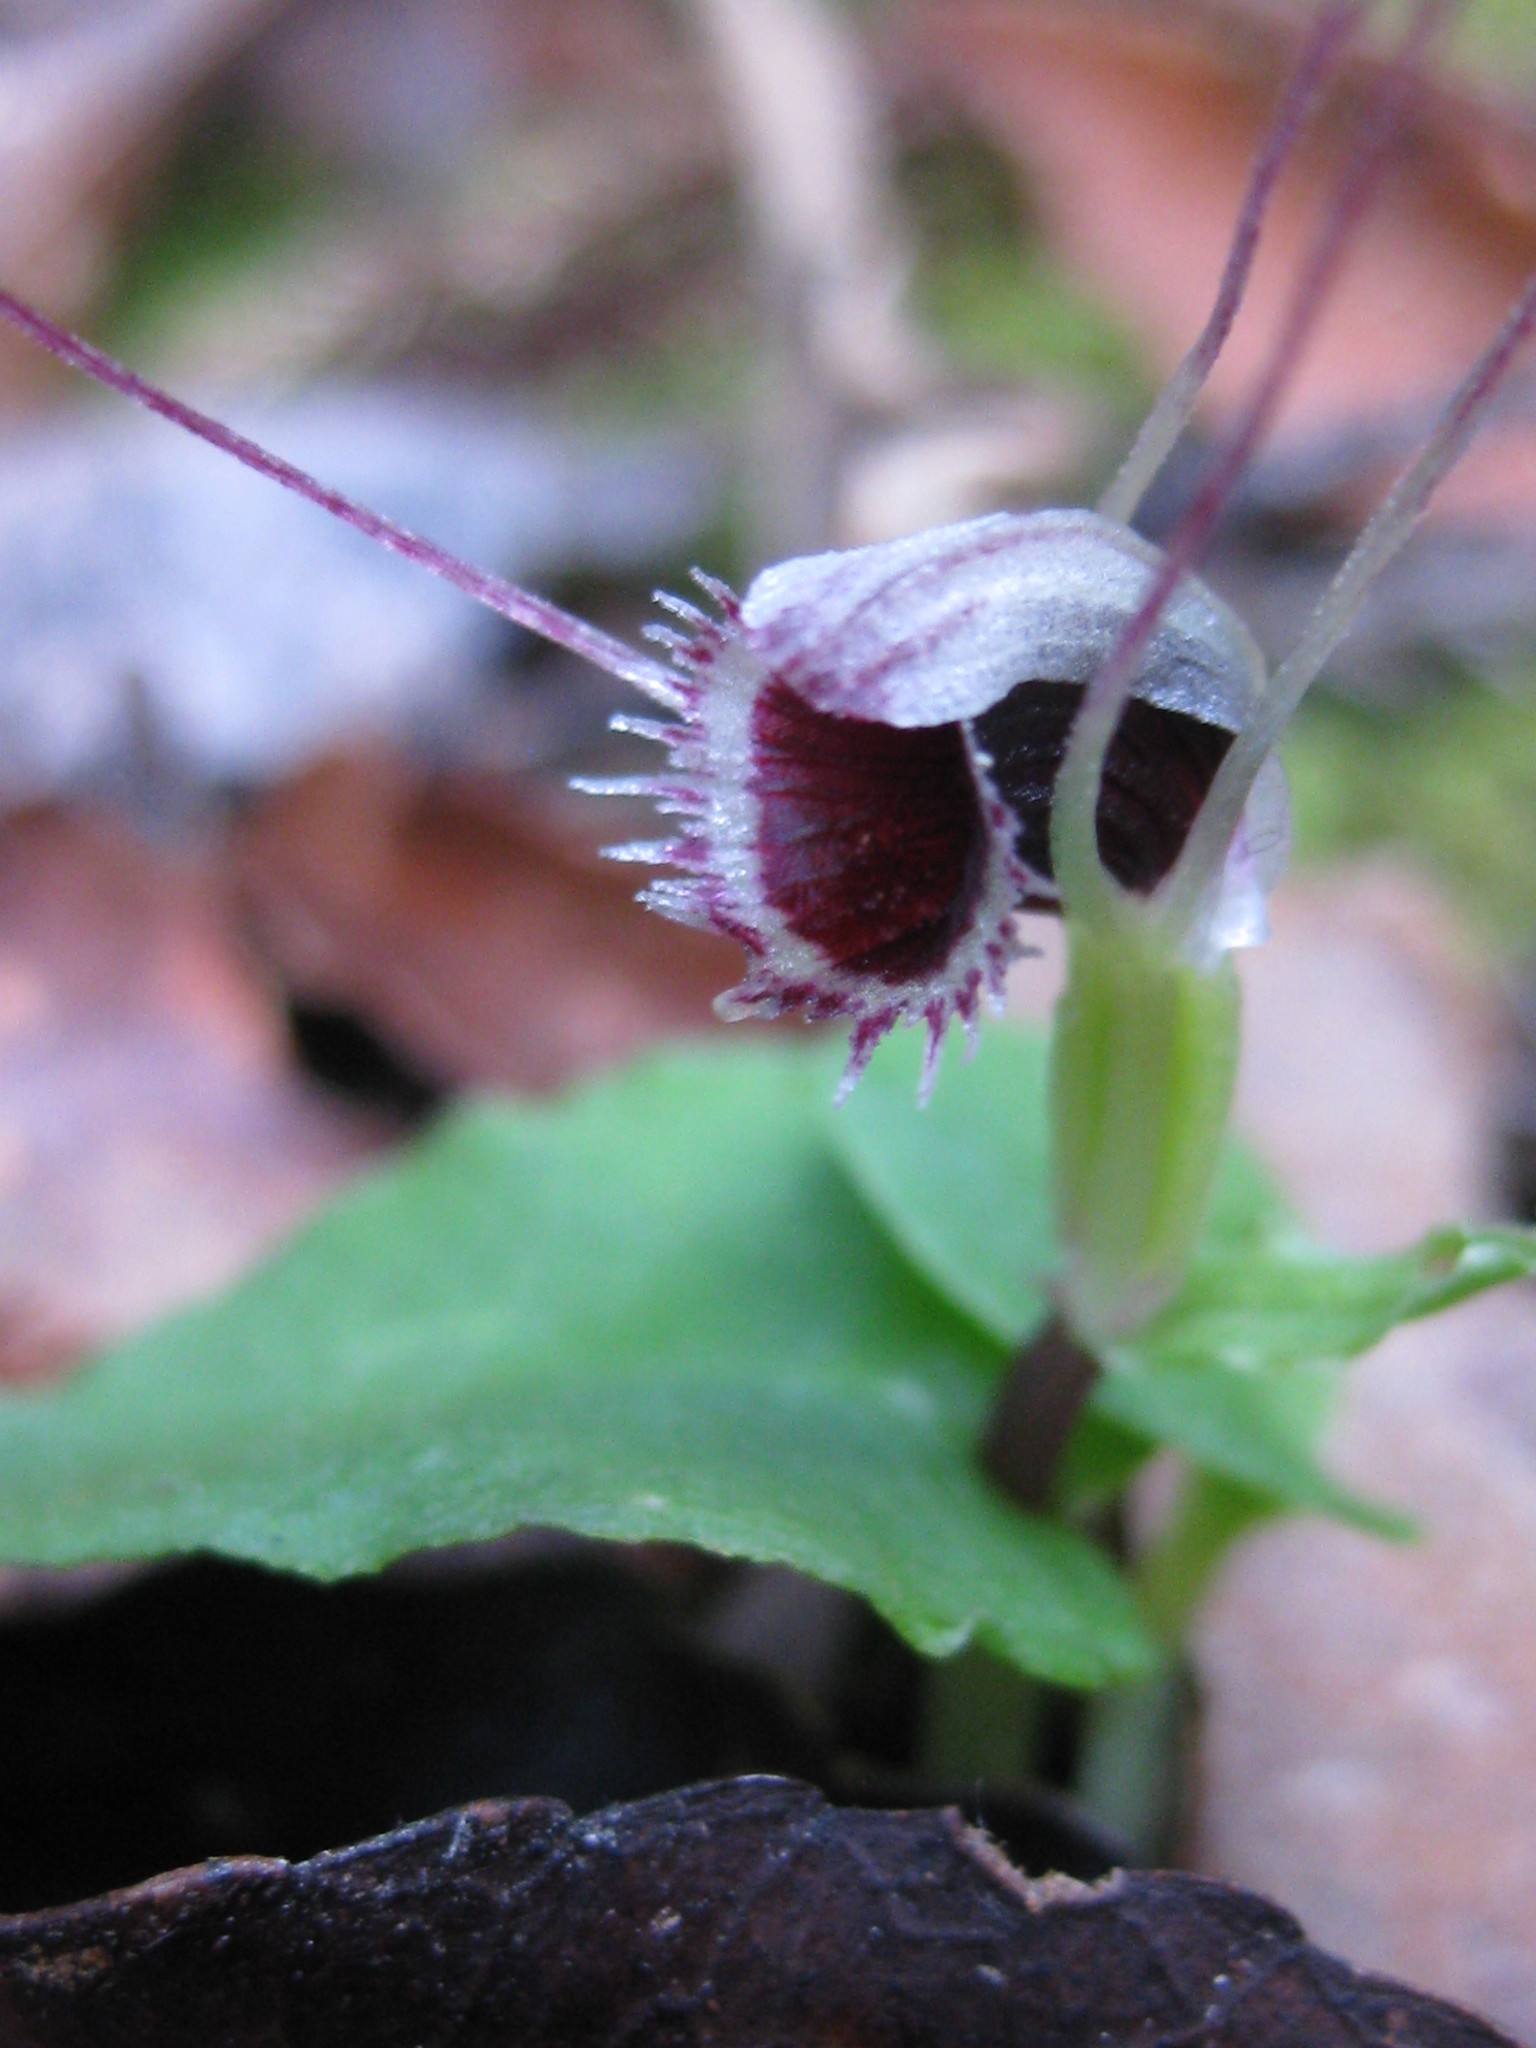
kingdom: Plantae
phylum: Tracheophyta
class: Liliopsida
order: Asparagales
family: Orchidaceae
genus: Corybas
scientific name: Corybas oblongus
